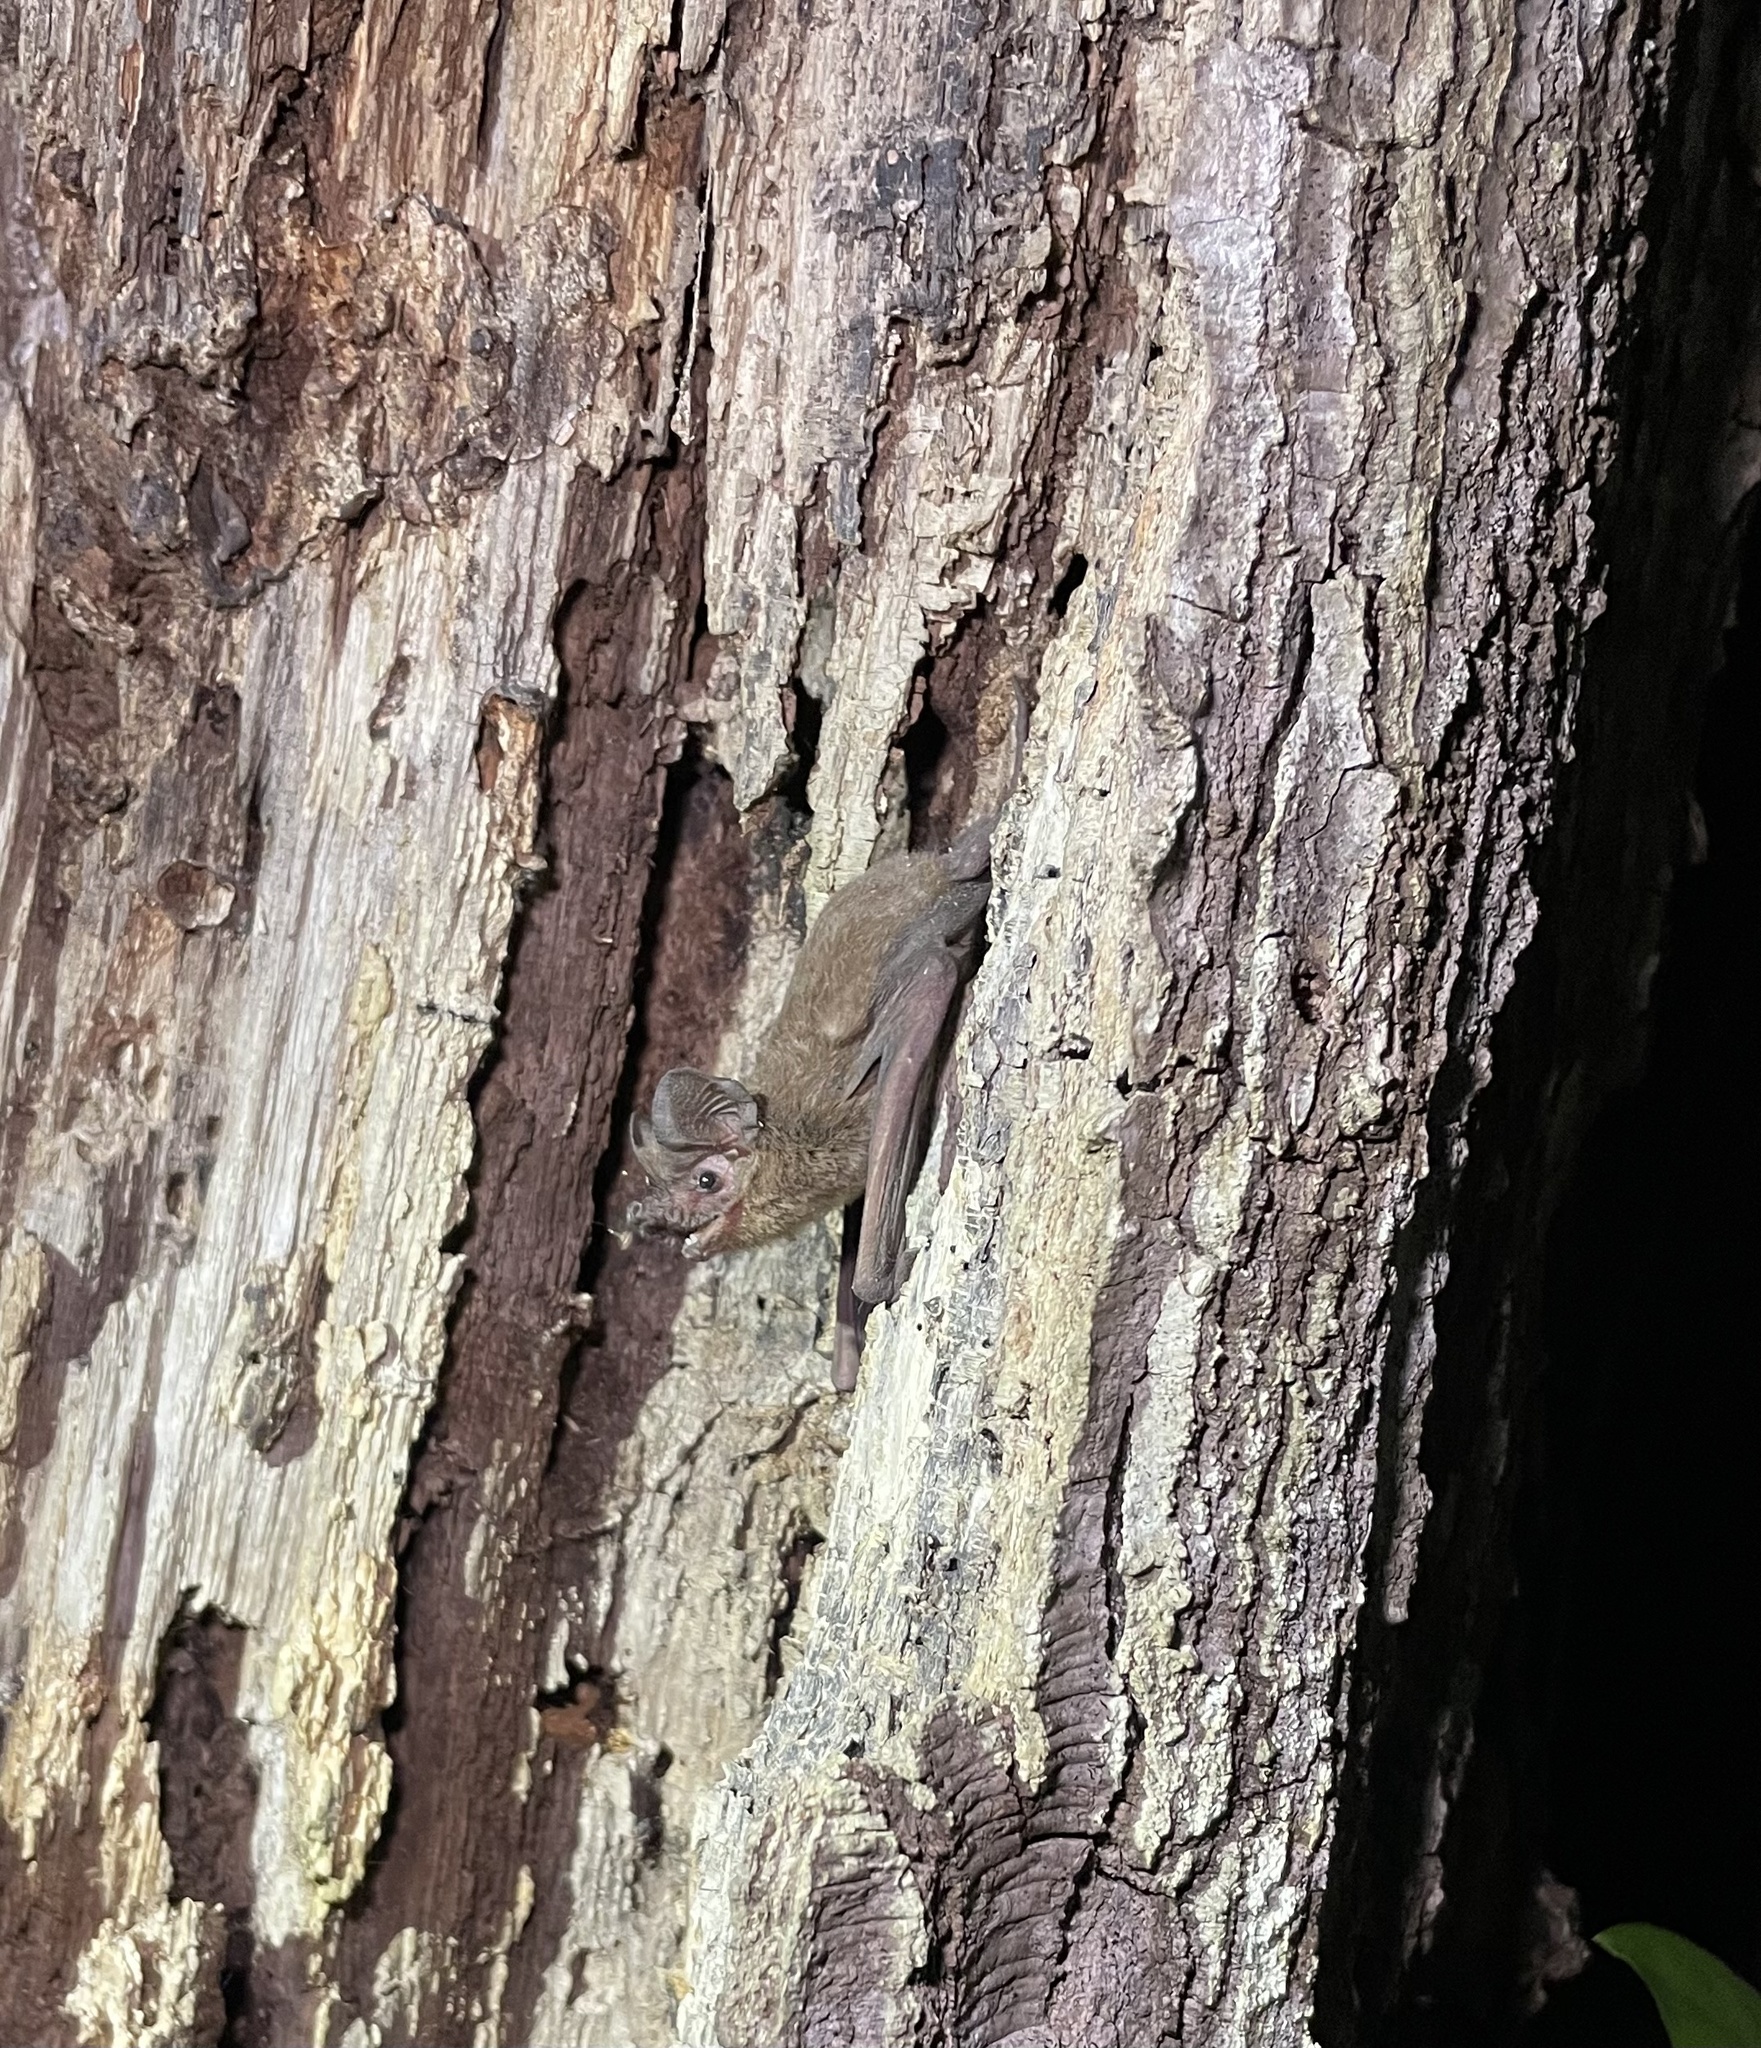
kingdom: Animalia
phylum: Chordata
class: Mammalia
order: Chiroptera
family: Molossidae
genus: Tadarida
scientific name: Tadarida brasiliensis
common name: Mexican free-tailed bat
